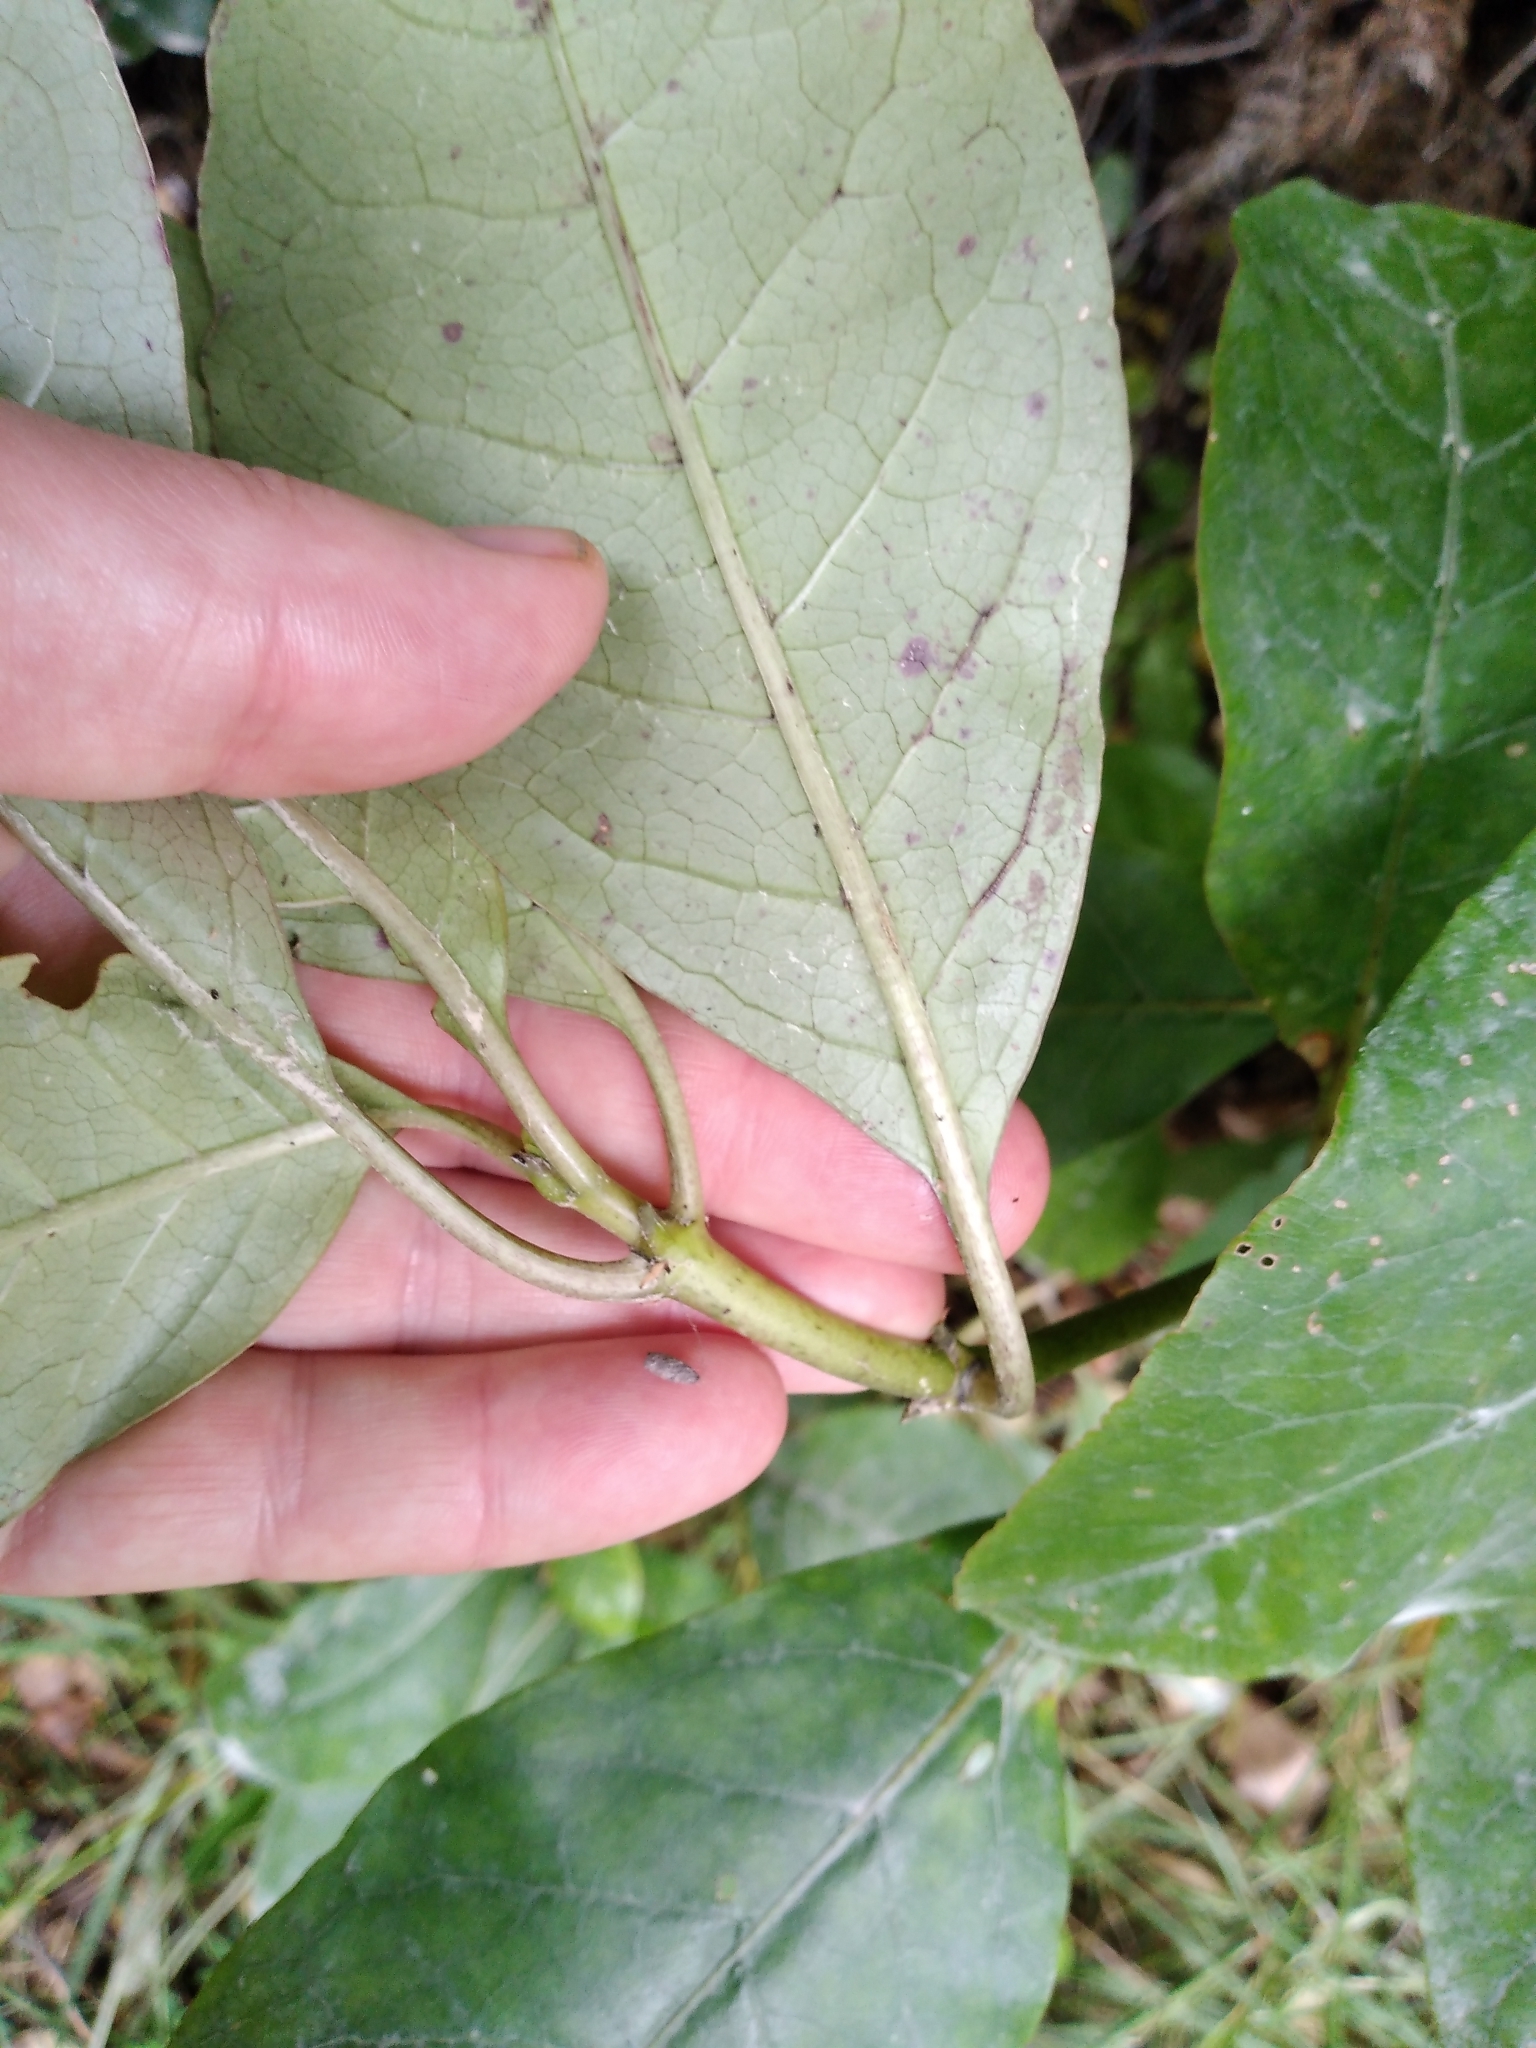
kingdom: Plantae
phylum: Tracheophyta
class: Magnoliopsida
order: Gentianales
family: Rubiaceae
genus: Coprosma
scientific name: Coprosma autumnalis
